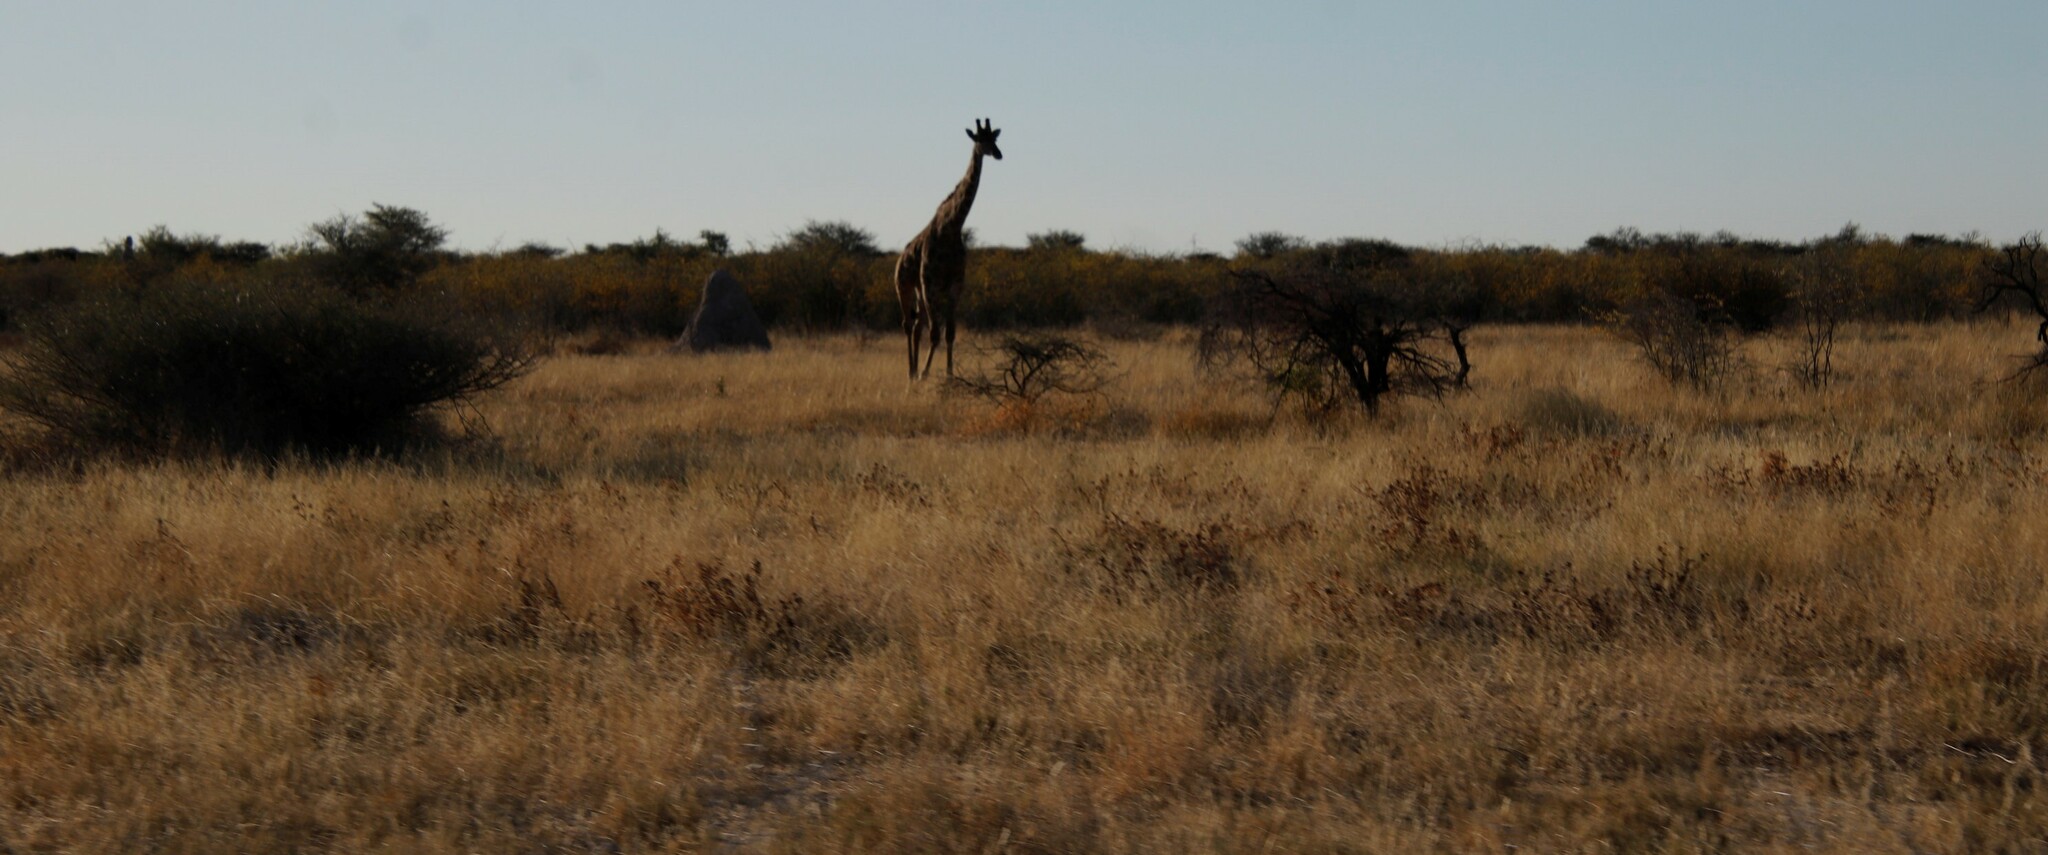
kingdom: Animalia
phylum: Chordata
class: Mammalia
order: Artiodactyla
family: Giraffidae
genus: Giraffa
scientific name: Giraffa giraffa
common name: Southern giraffe
